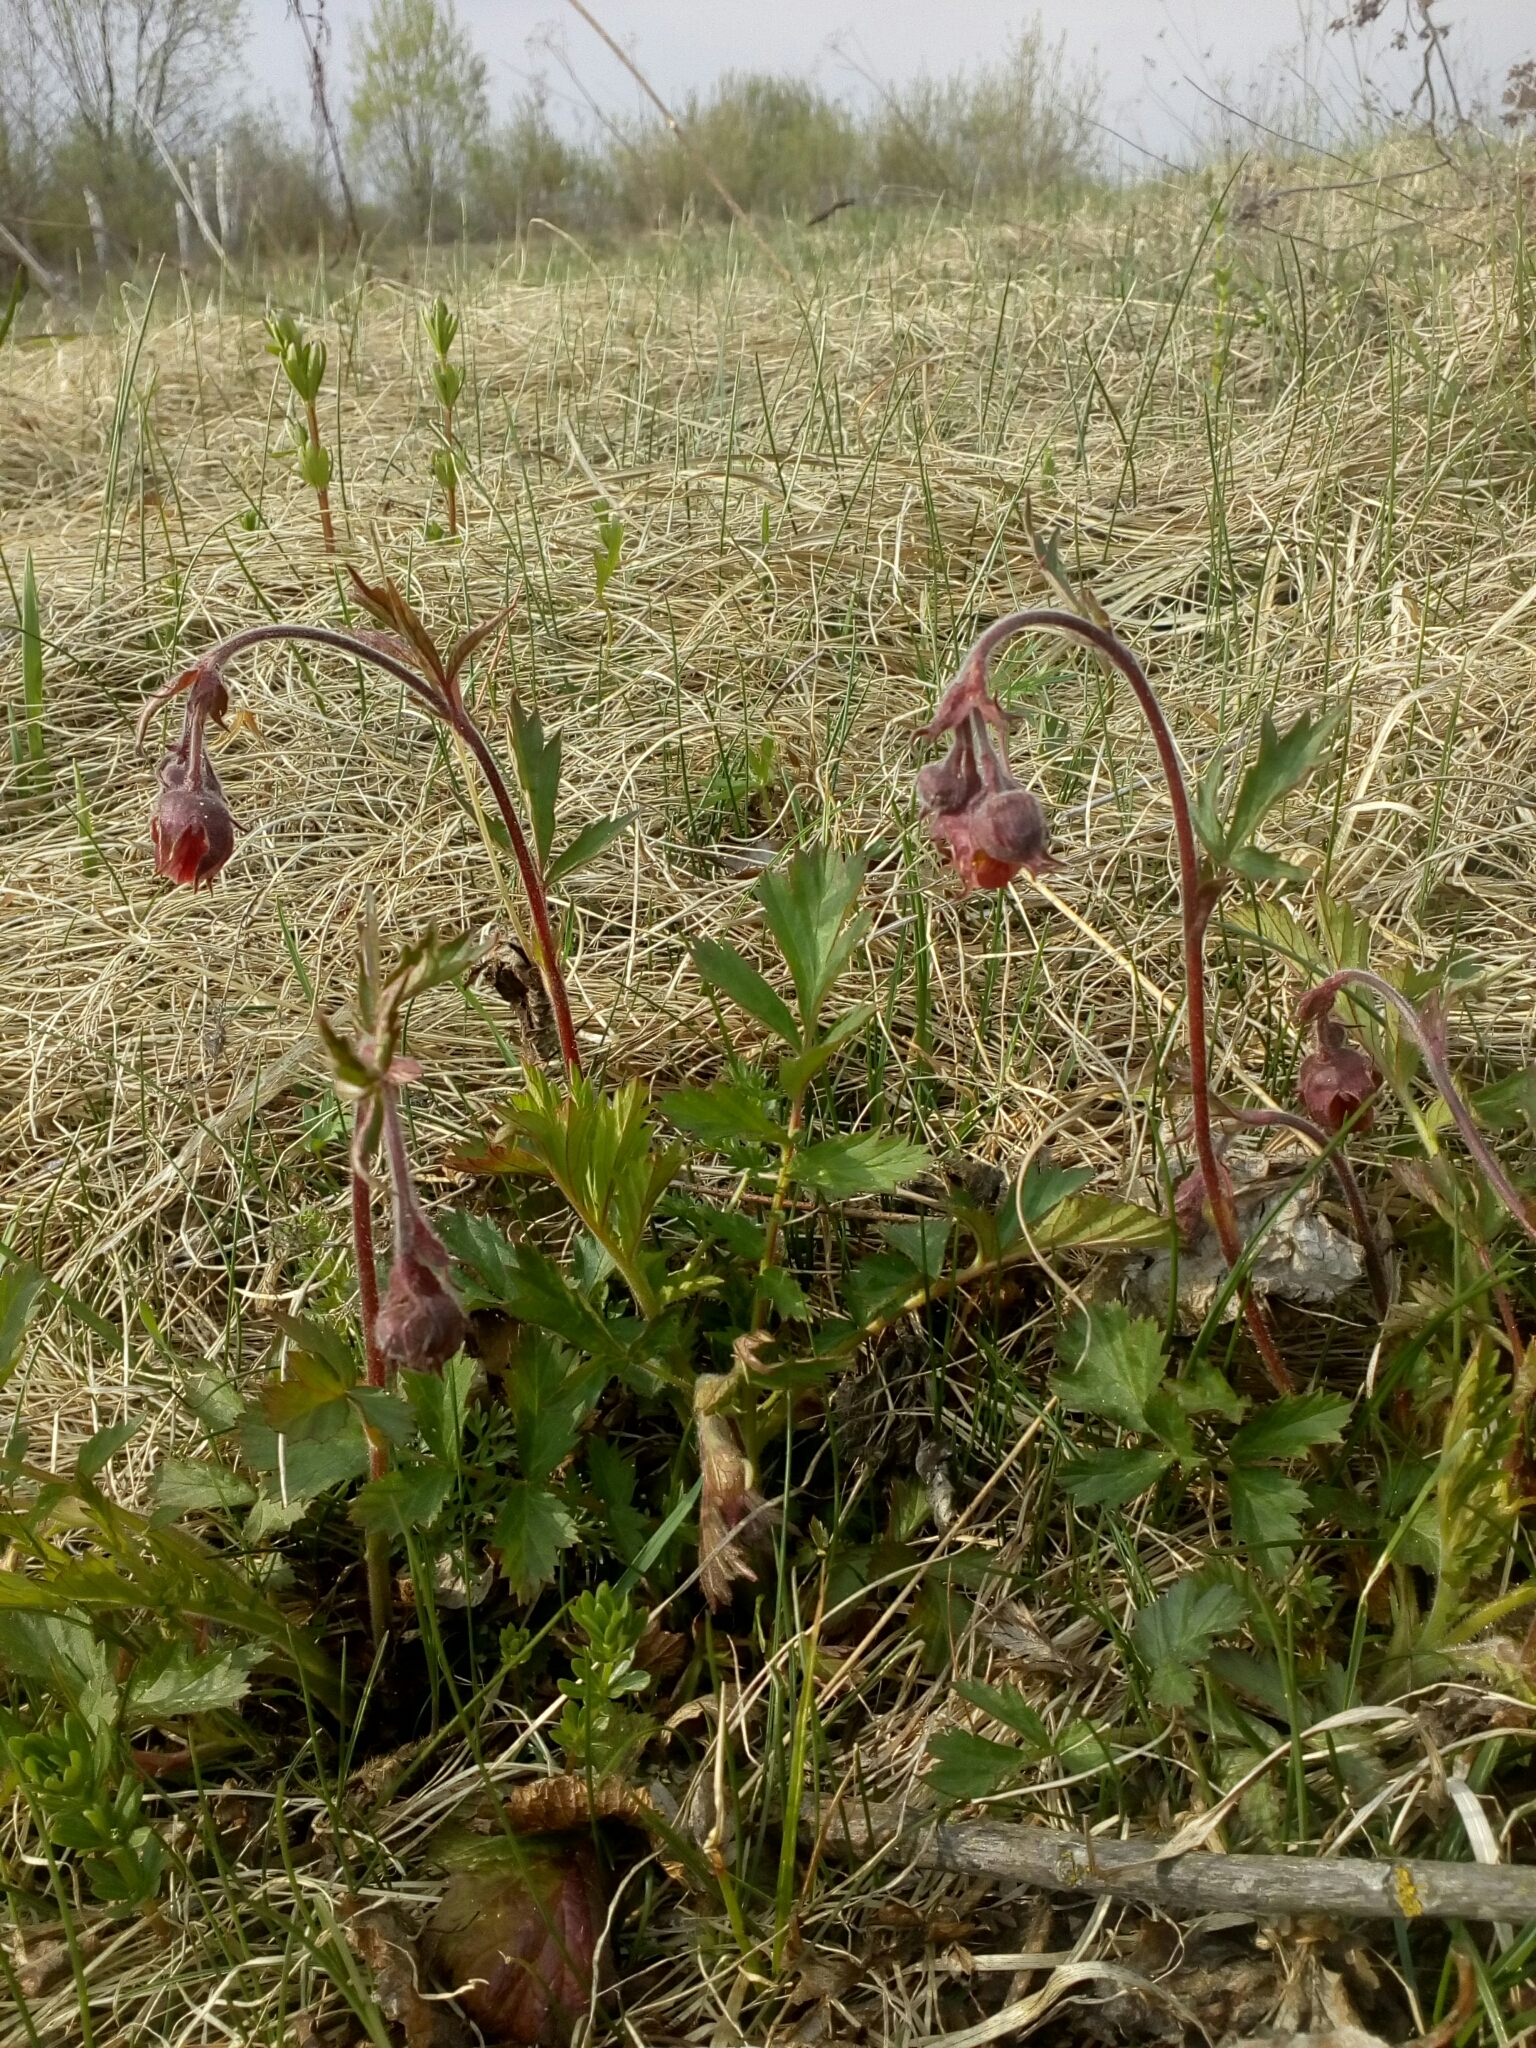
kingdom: Plantae
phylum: Tracheophyta
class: Magnoliopsida
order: Rosales
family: Rosaceae
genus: Geum
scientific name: Geum rivale
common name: Water avens
